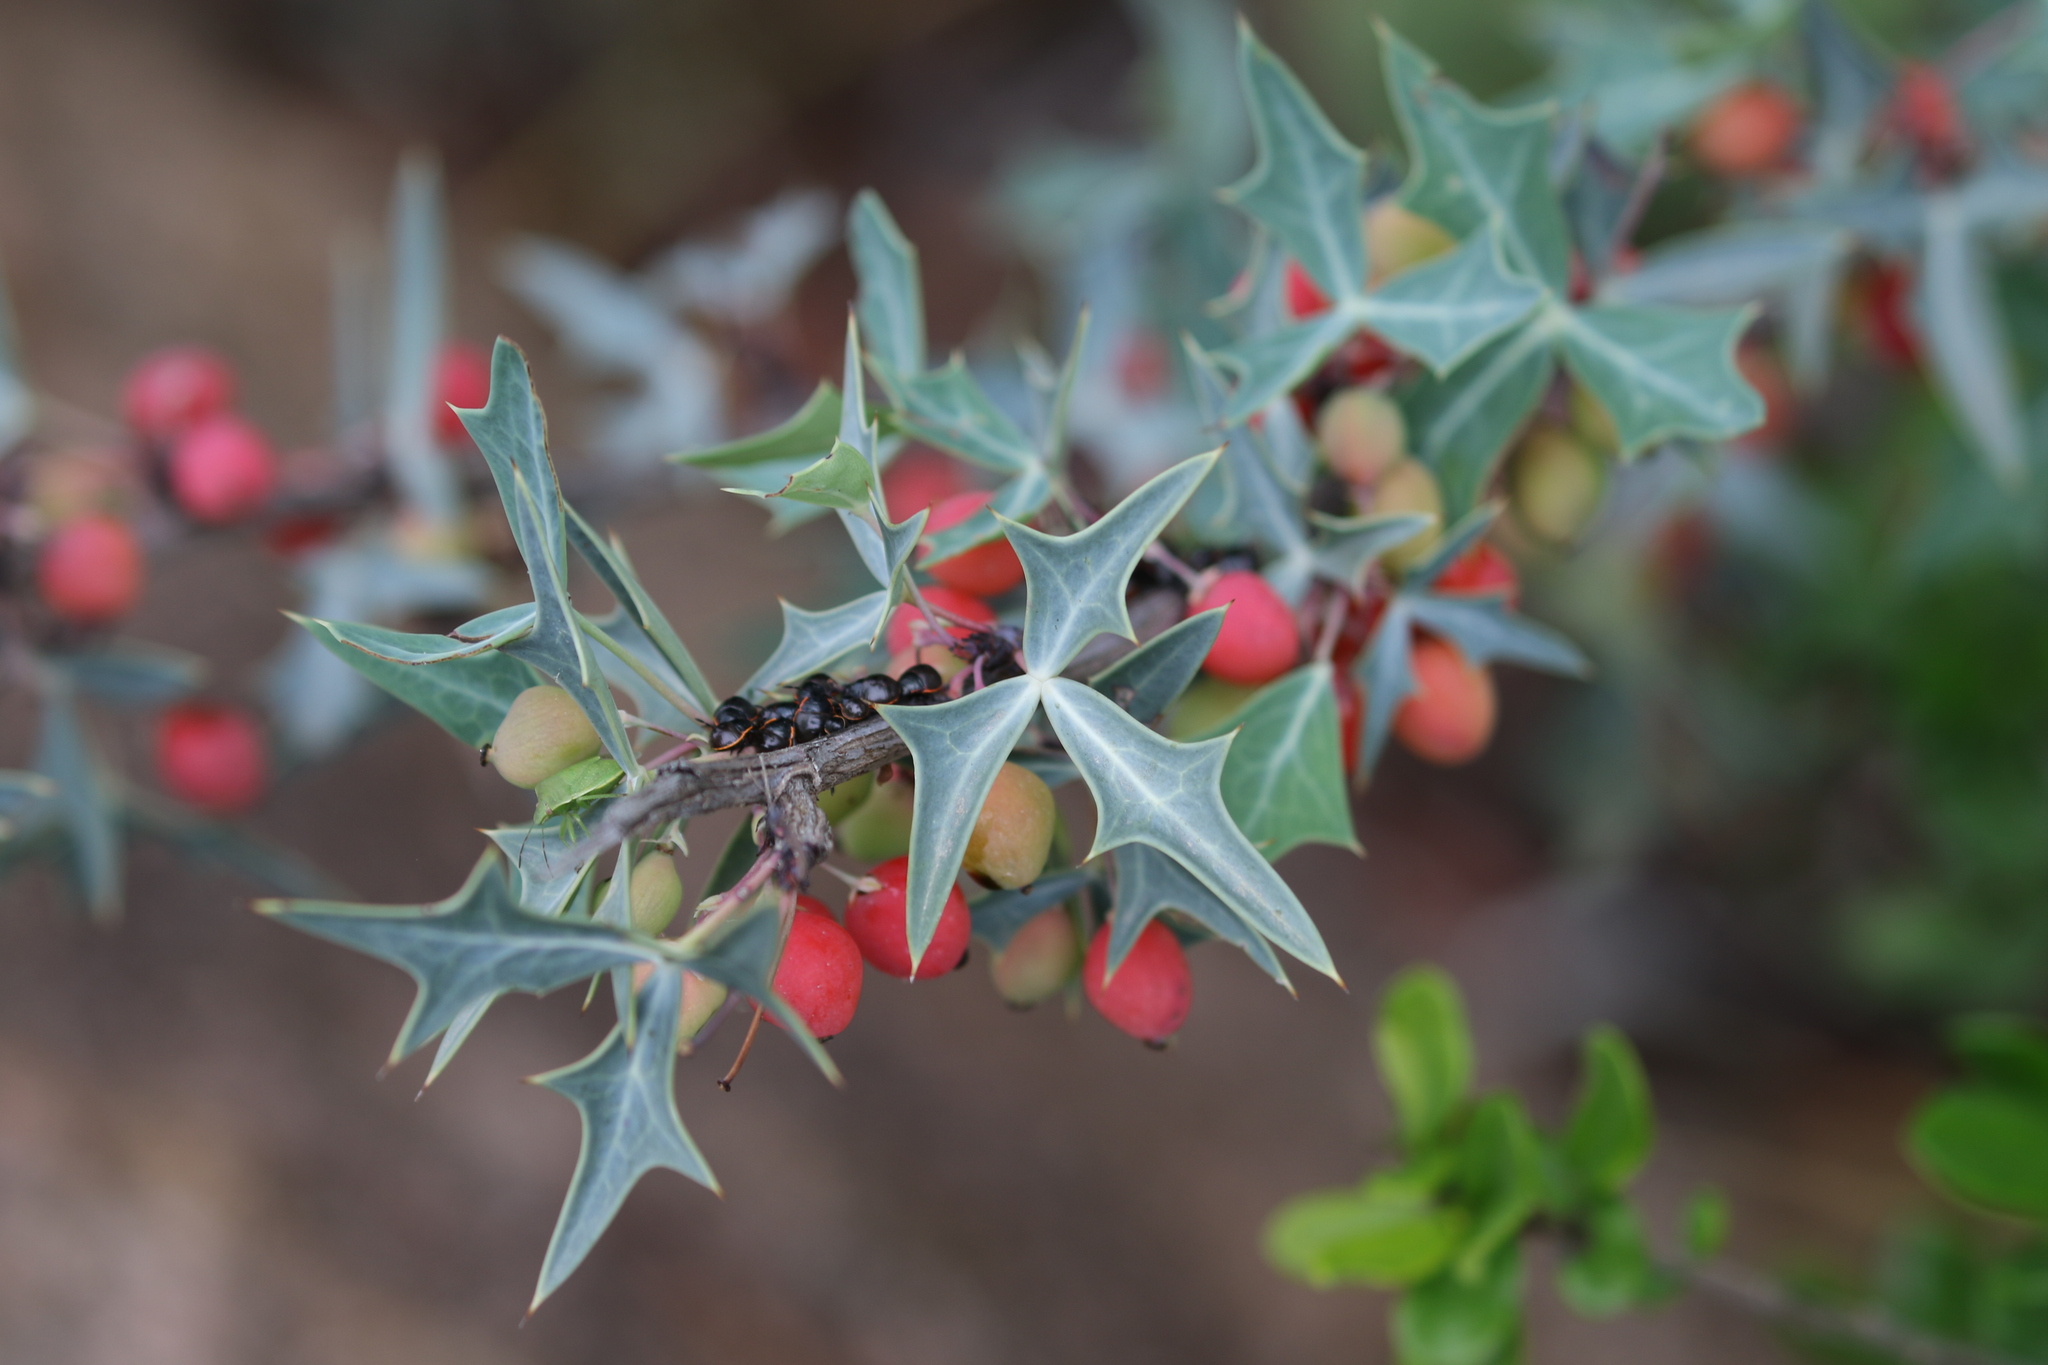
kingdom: Plantae
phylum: Tracheophyta
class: Magnoliopsida
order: Ranunculales
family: Berberidaceae
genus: Alloberberis
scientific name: Alloberberis trifoliolata
